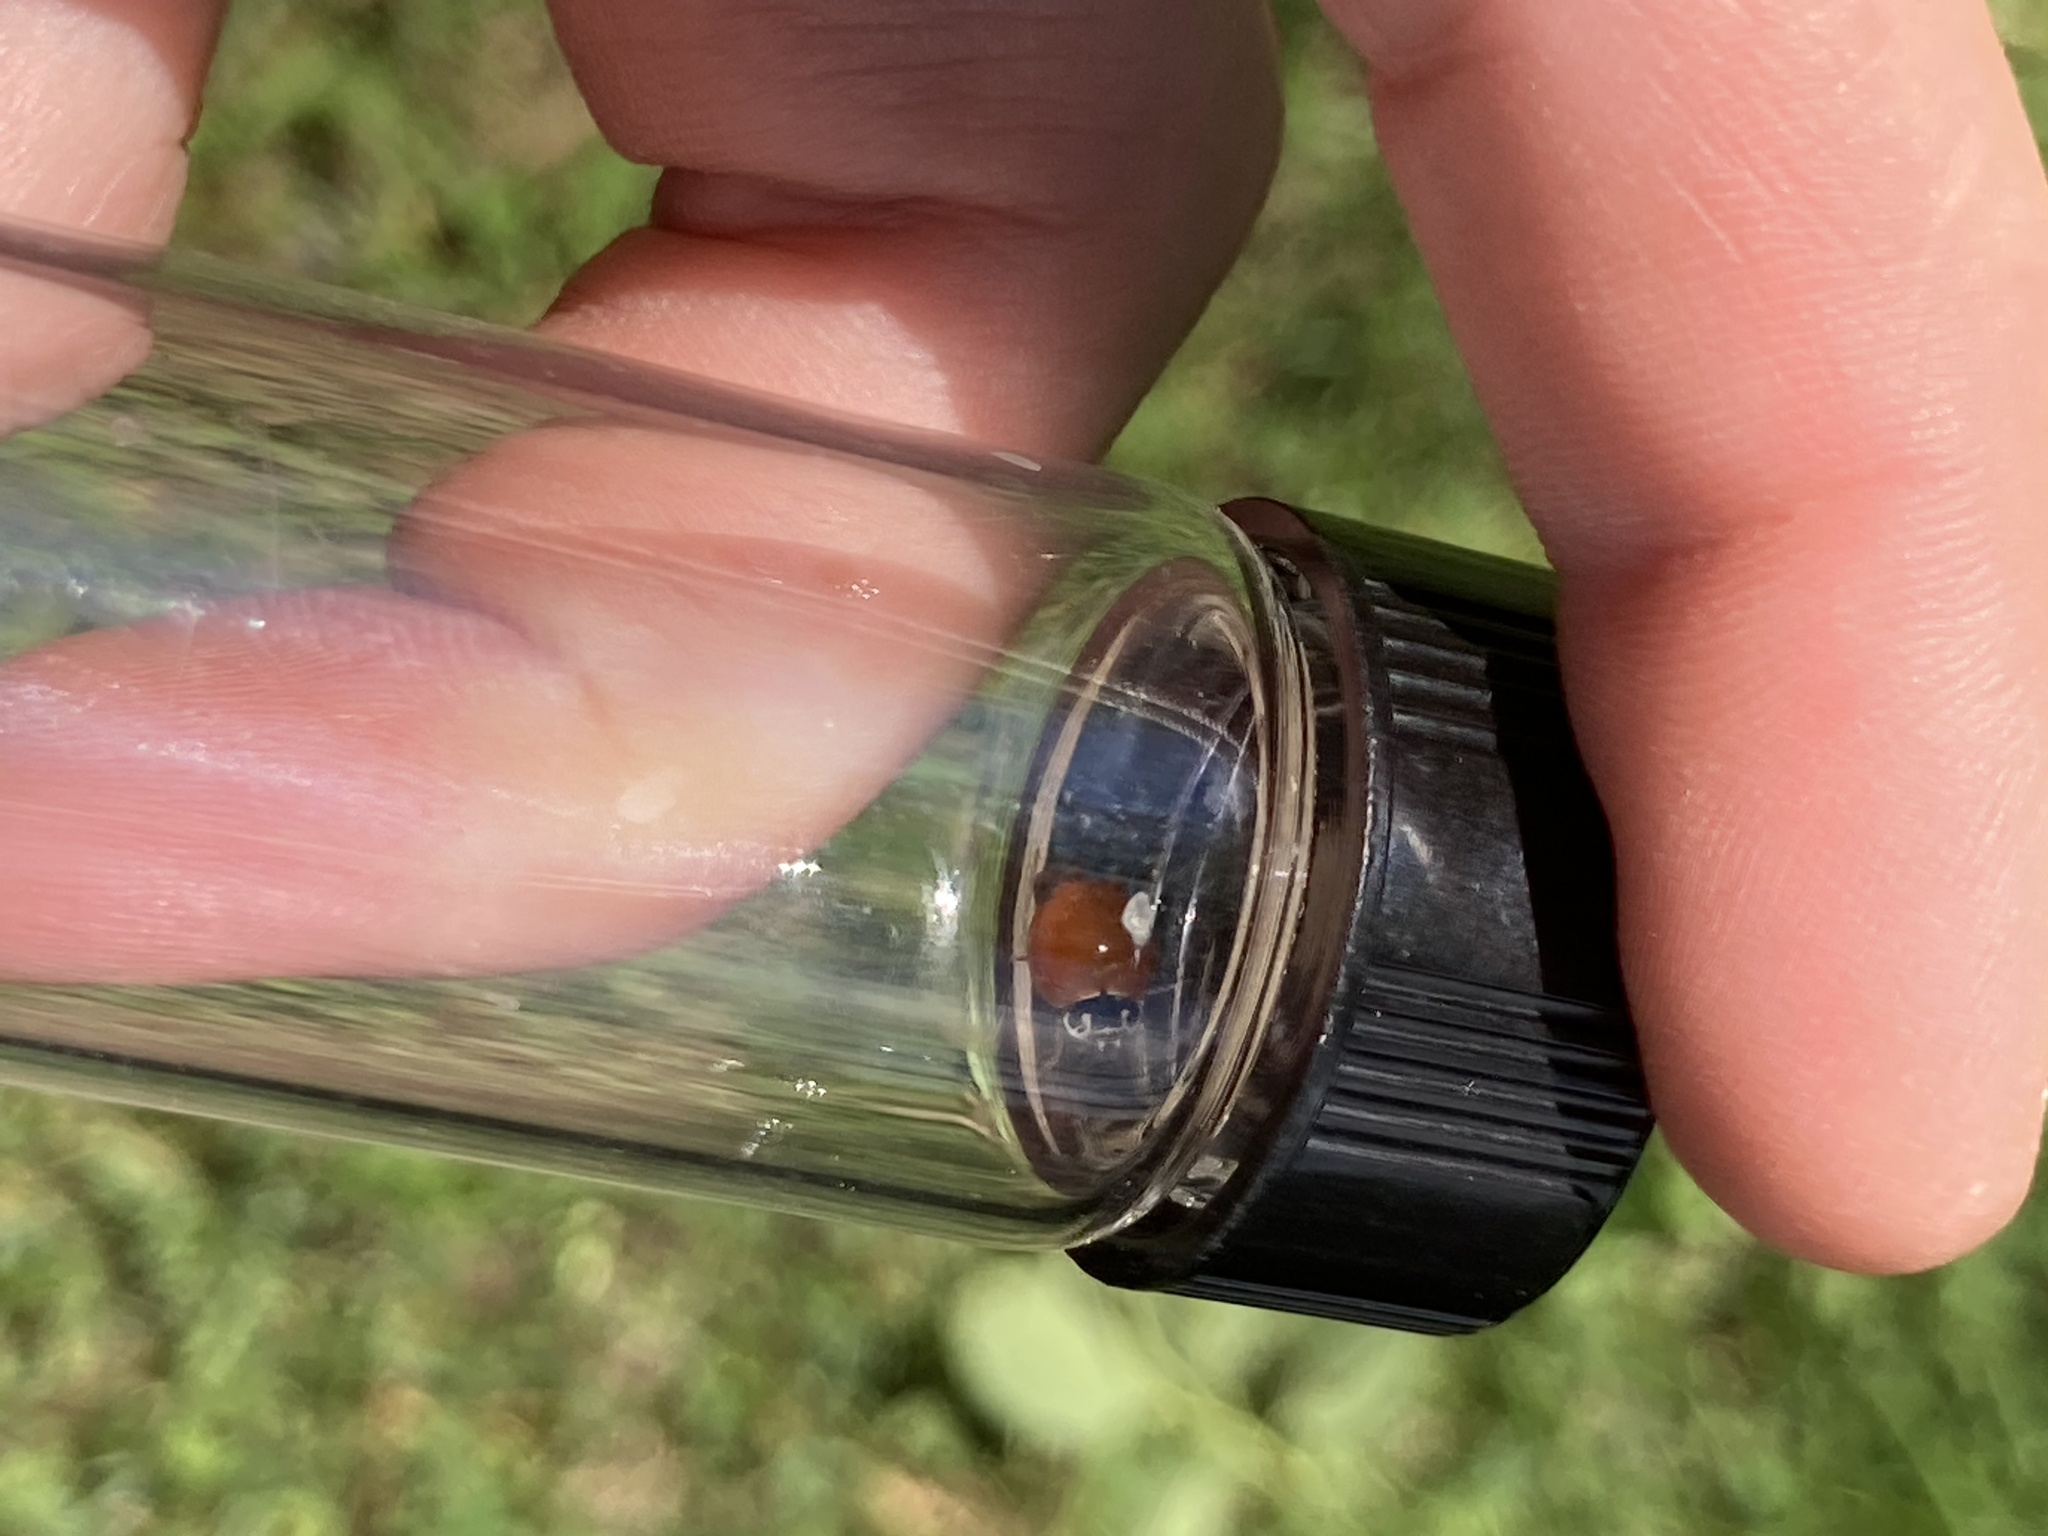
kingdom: Animalia
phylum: Arthropoda
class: Insecta
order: Coleoptera
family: Coccinellidae
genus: Cycloneda
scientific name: Cycloneda munda
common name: Polished lady beetle
